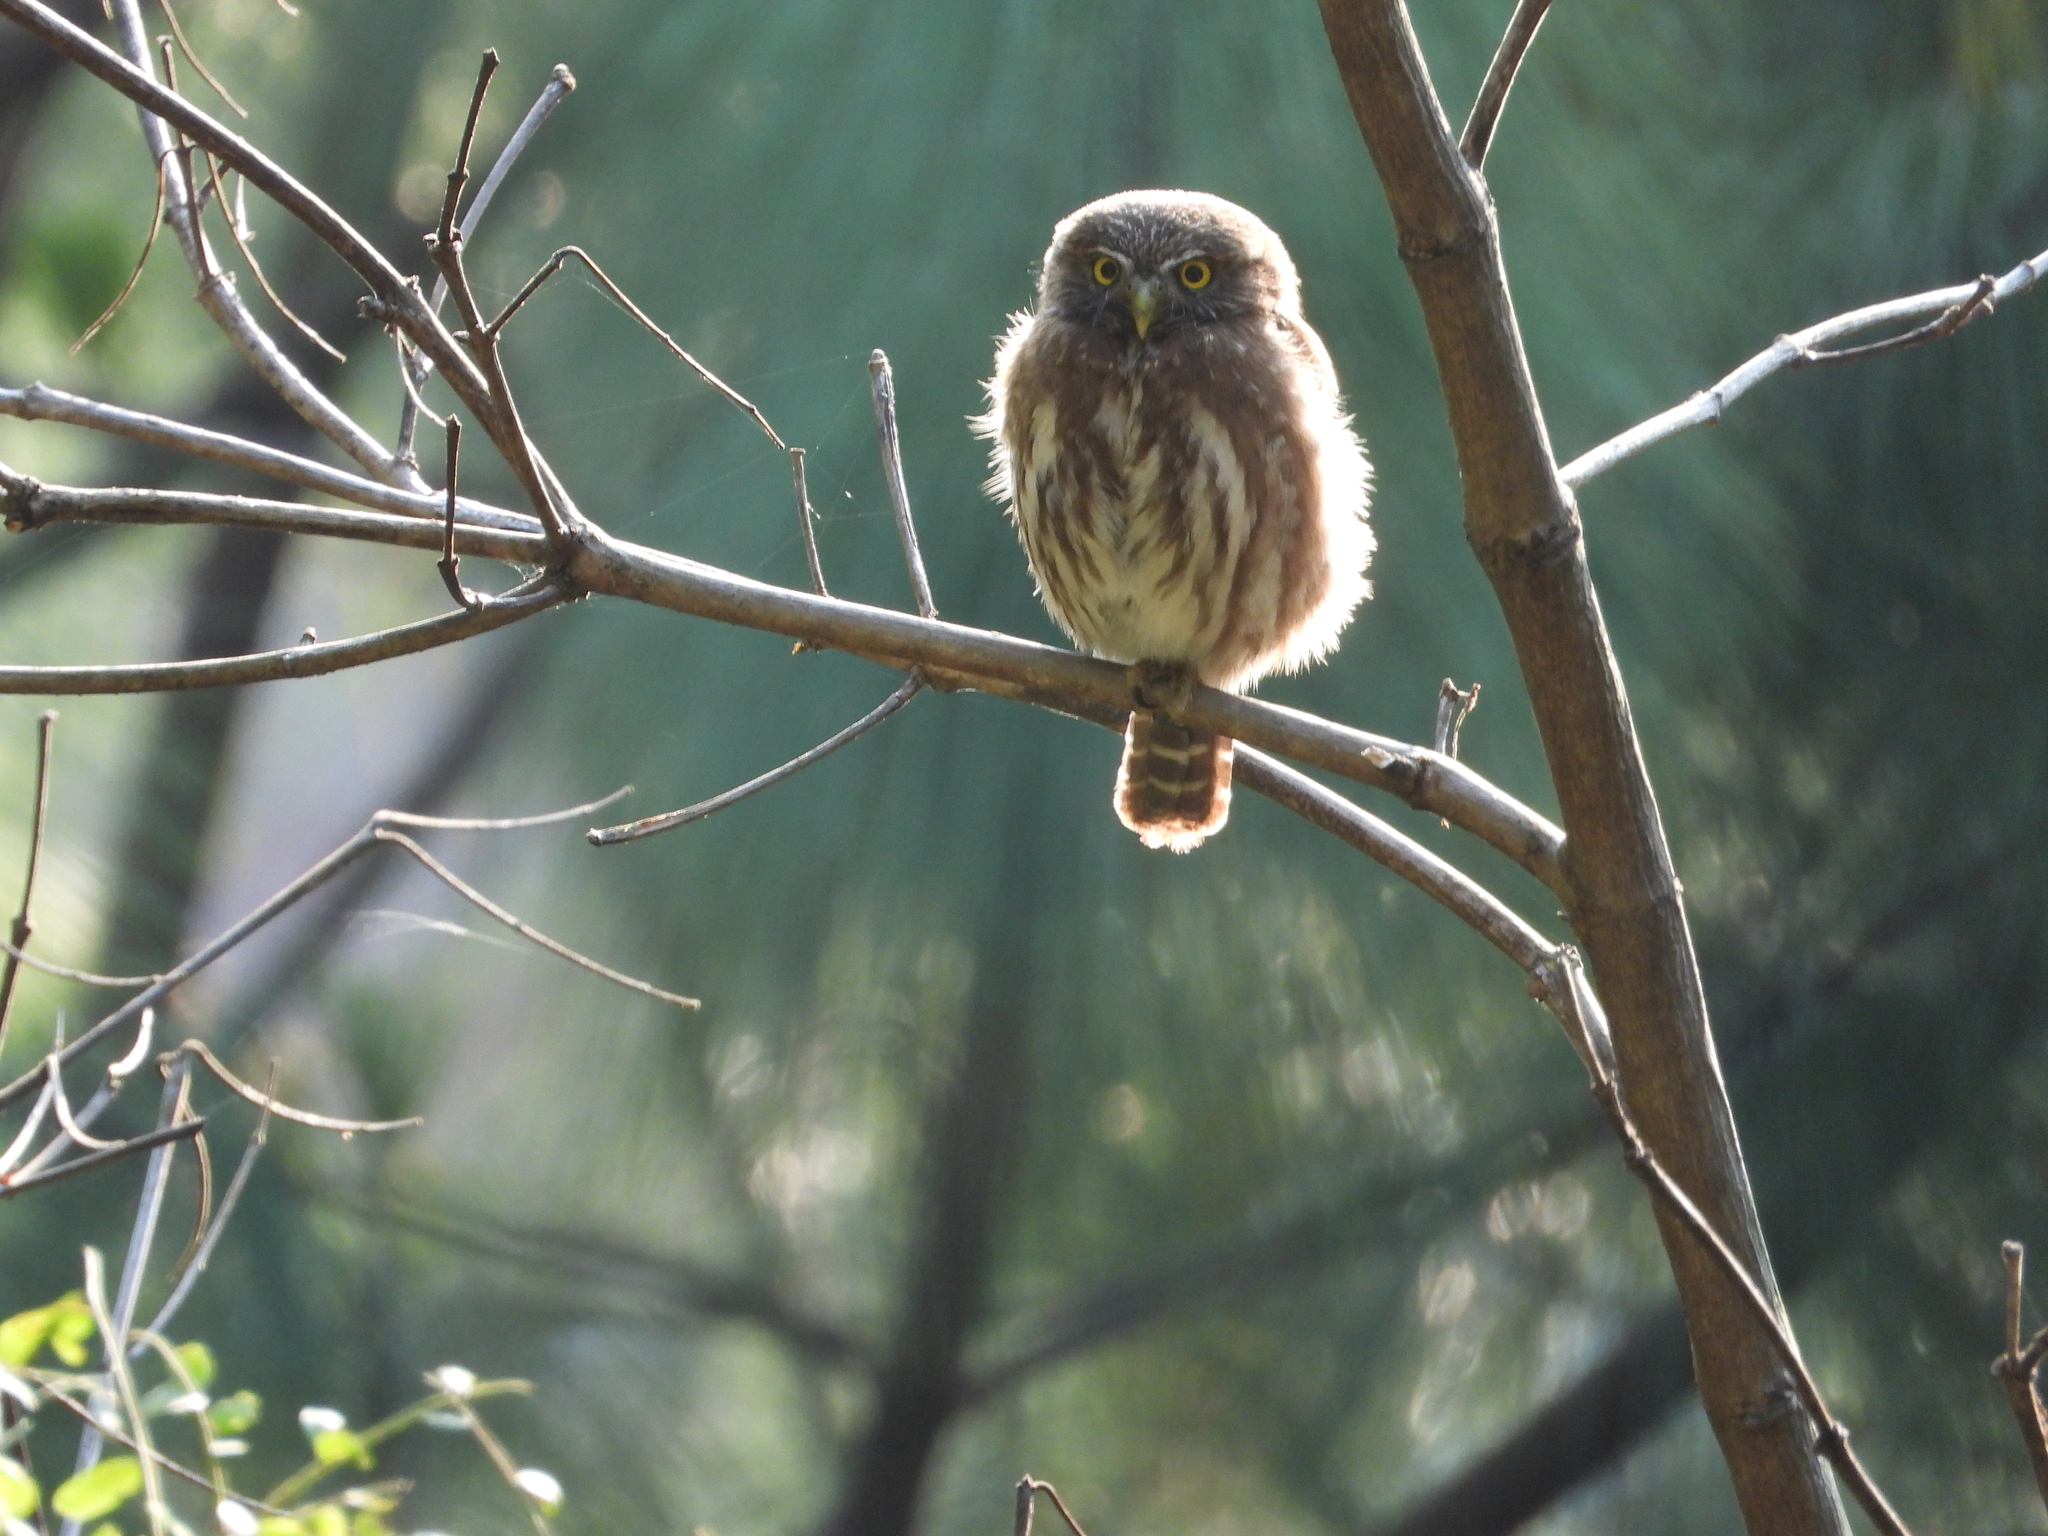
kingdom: Animalia
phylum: Chordata
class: Aves
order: Strigiformes
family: Strigidae
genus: Glaucidium
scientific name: Glaucidium brasilianum
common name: Ferruginous pygmy-owl
